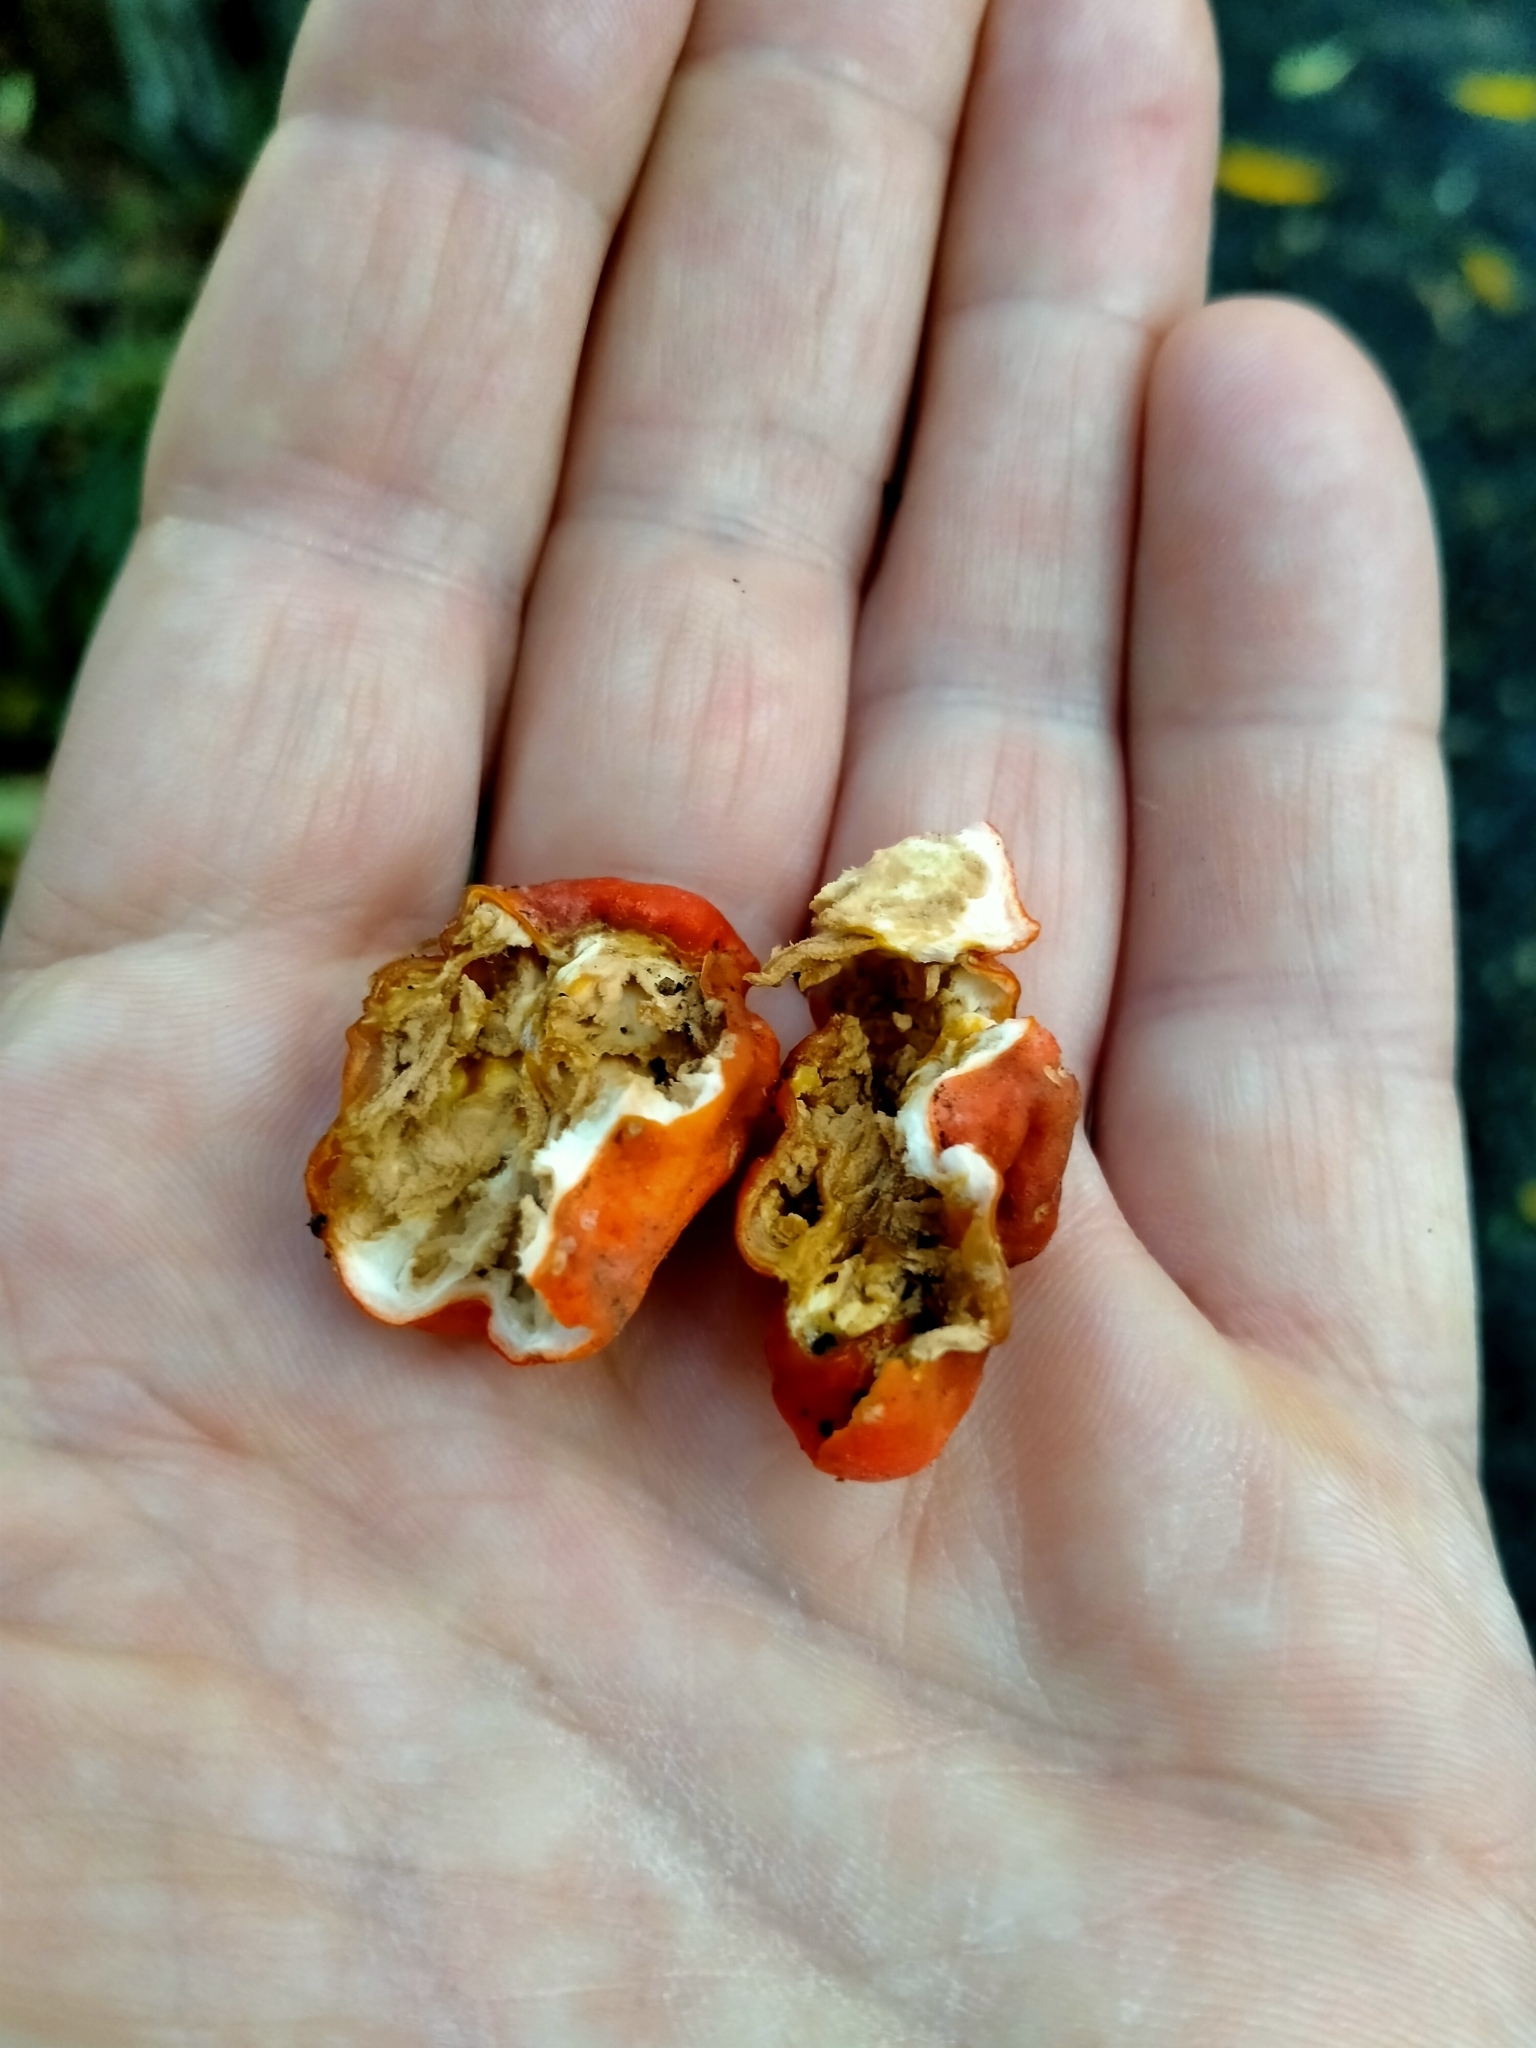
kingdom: Fungi
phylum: Ascomycota
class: Pezizomycetes
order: Pezizales
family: Pyronemataceae
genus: Paurocotylis
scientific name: Paurocotylis pila
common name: Scarlet berry truffle
